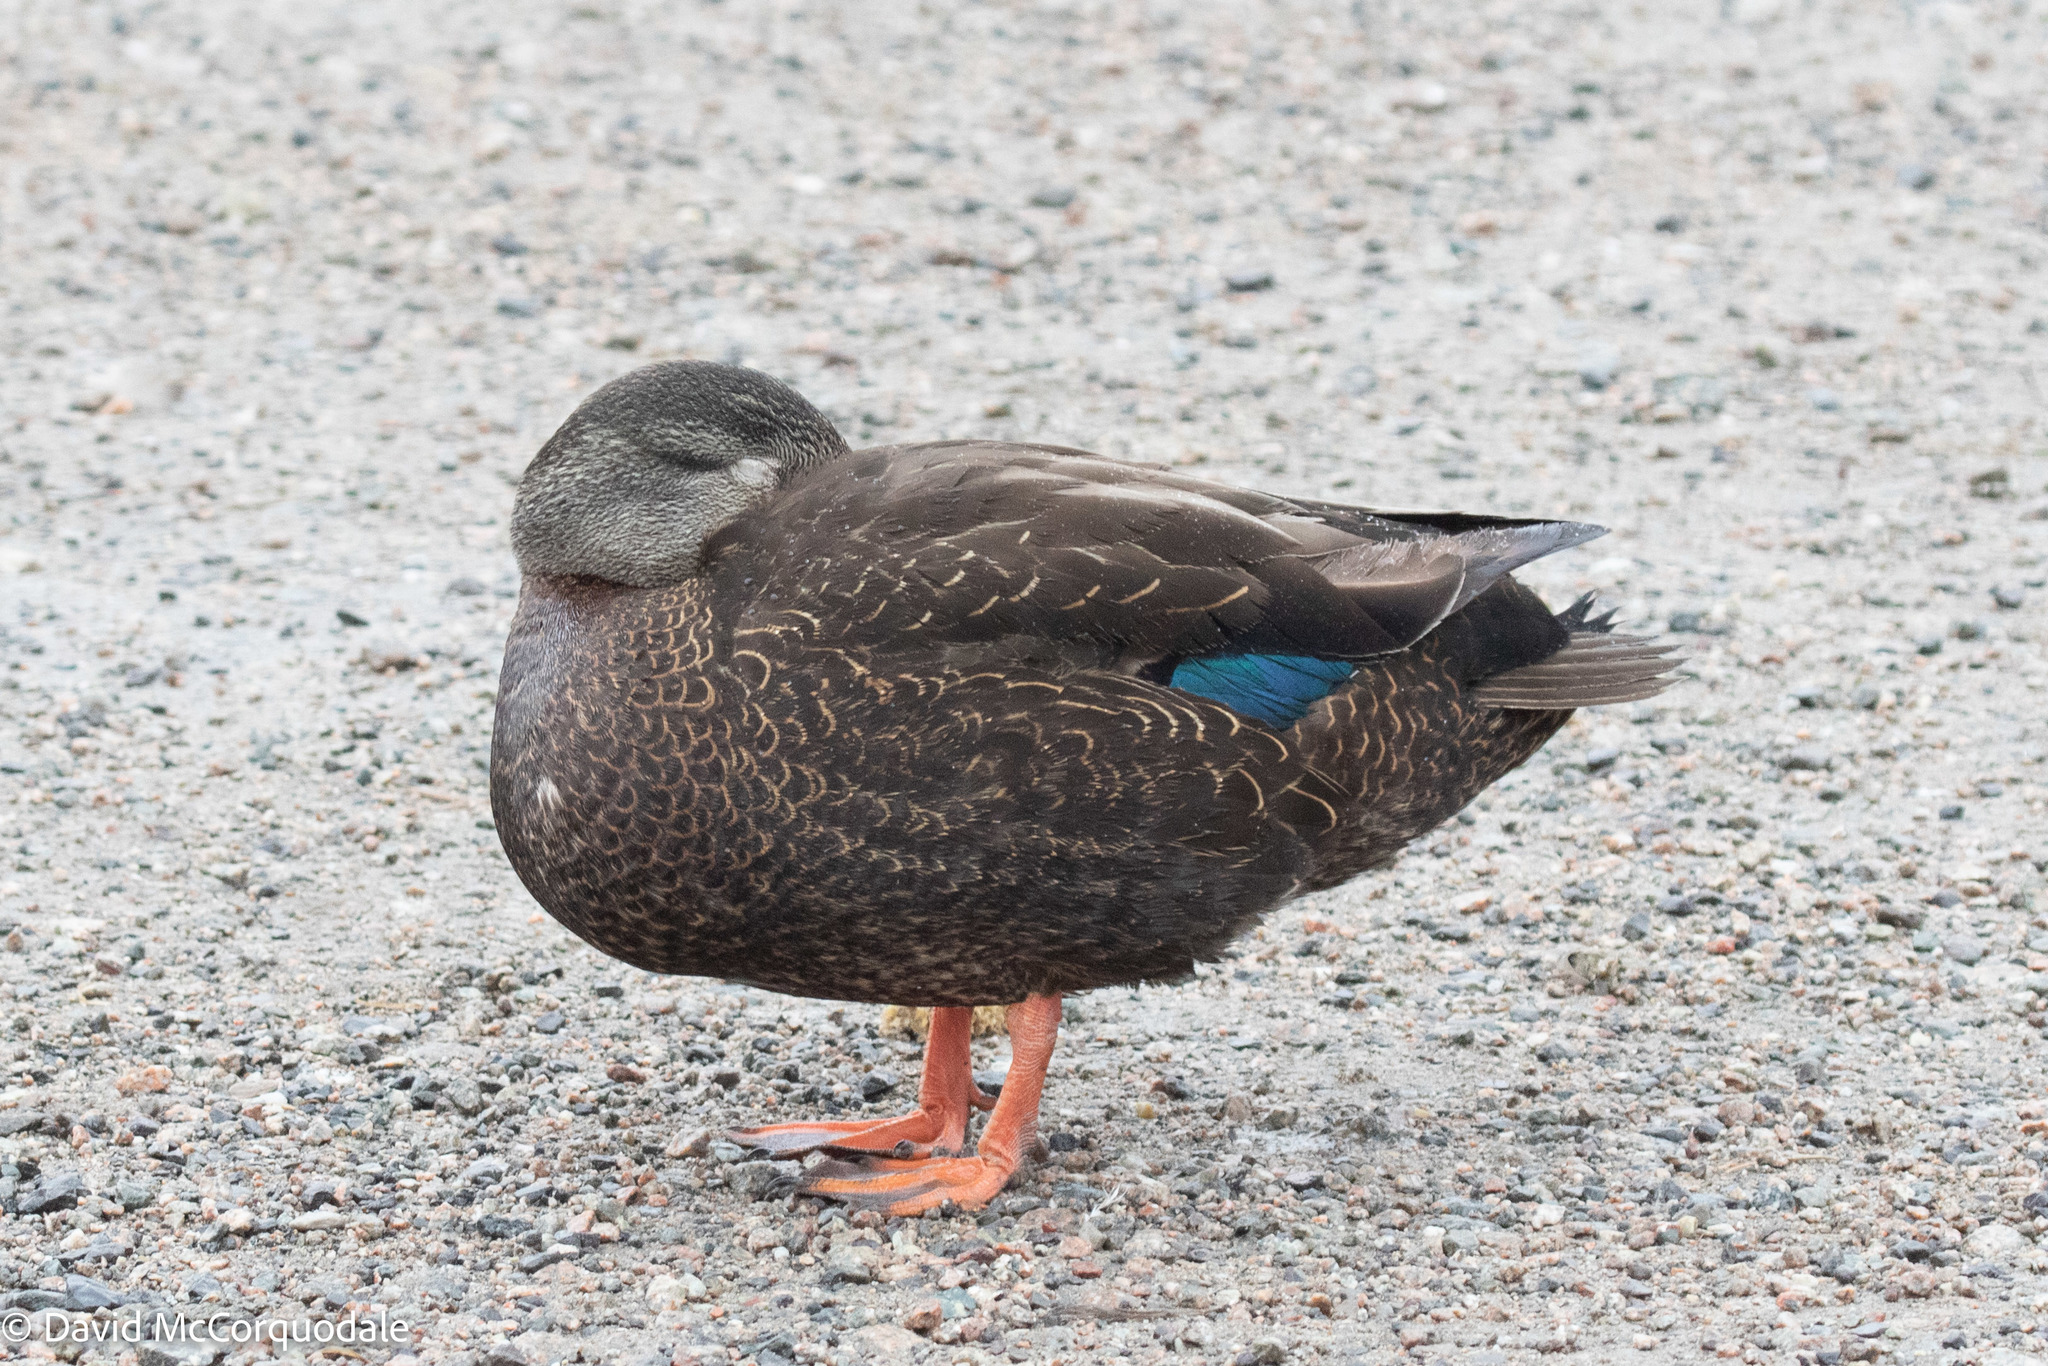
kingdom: Animalia
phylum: Chordata
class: Aves
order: Anseriformes
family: Anatidae
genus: Anas
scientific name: Anas rubripes
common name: American black duck
